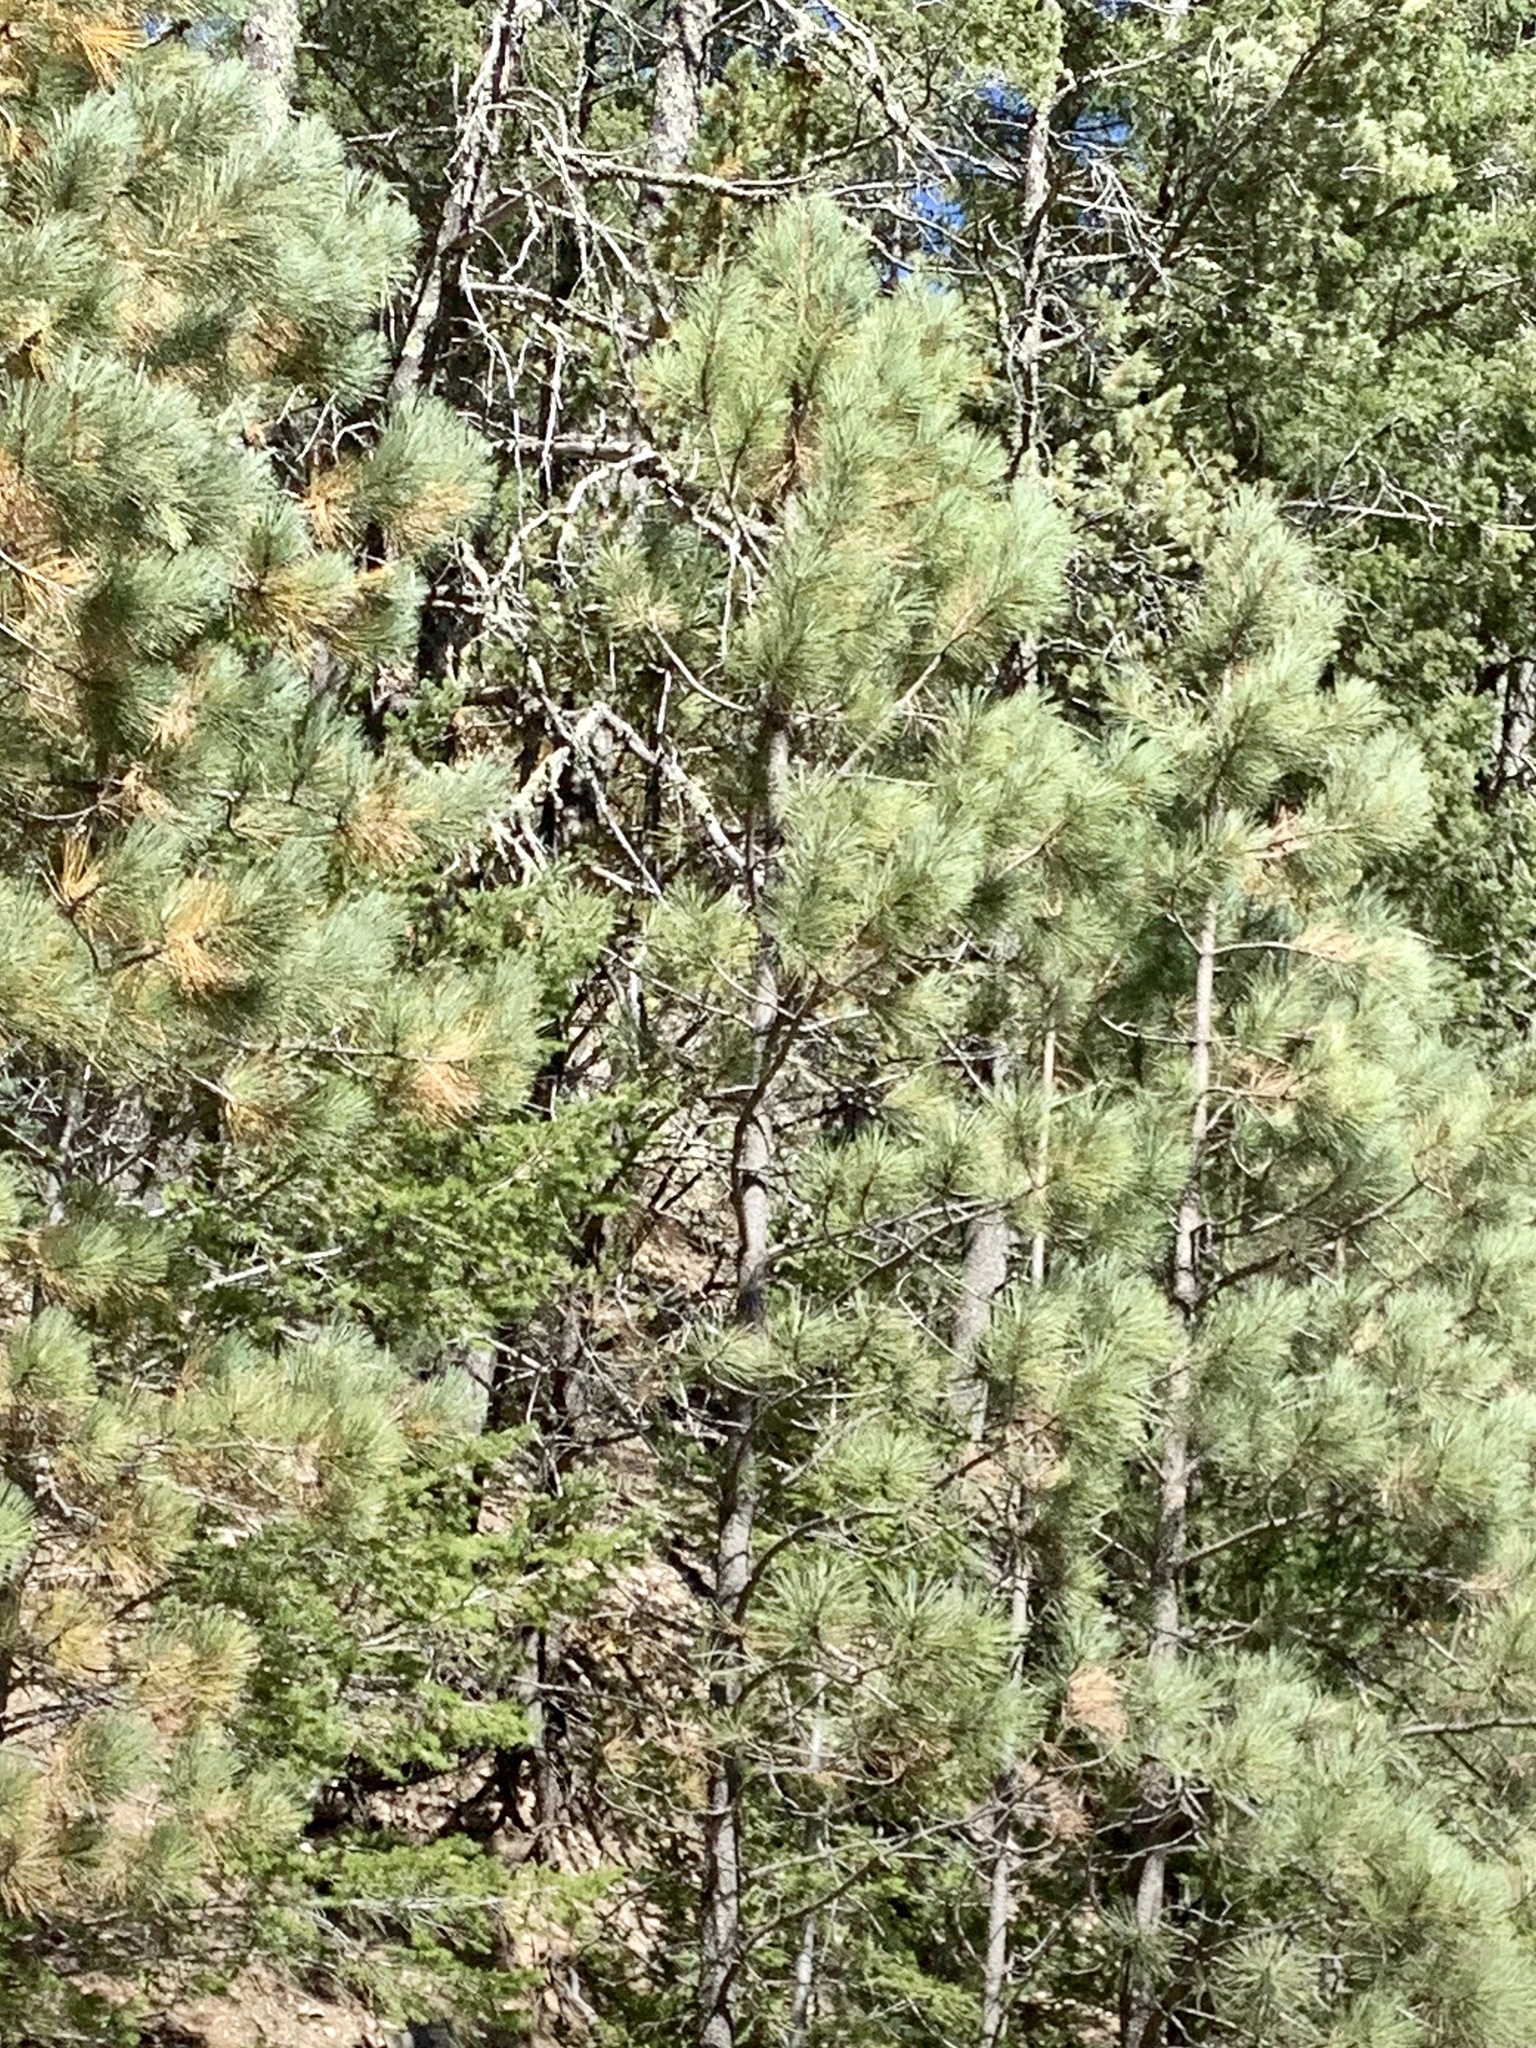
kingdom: Plantae
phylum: Tracheophyta
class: Pinopsida
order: Pinales
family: Pinaceae
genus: Pinus
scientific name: Pinus ponderosa
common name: Western yellow-pine
